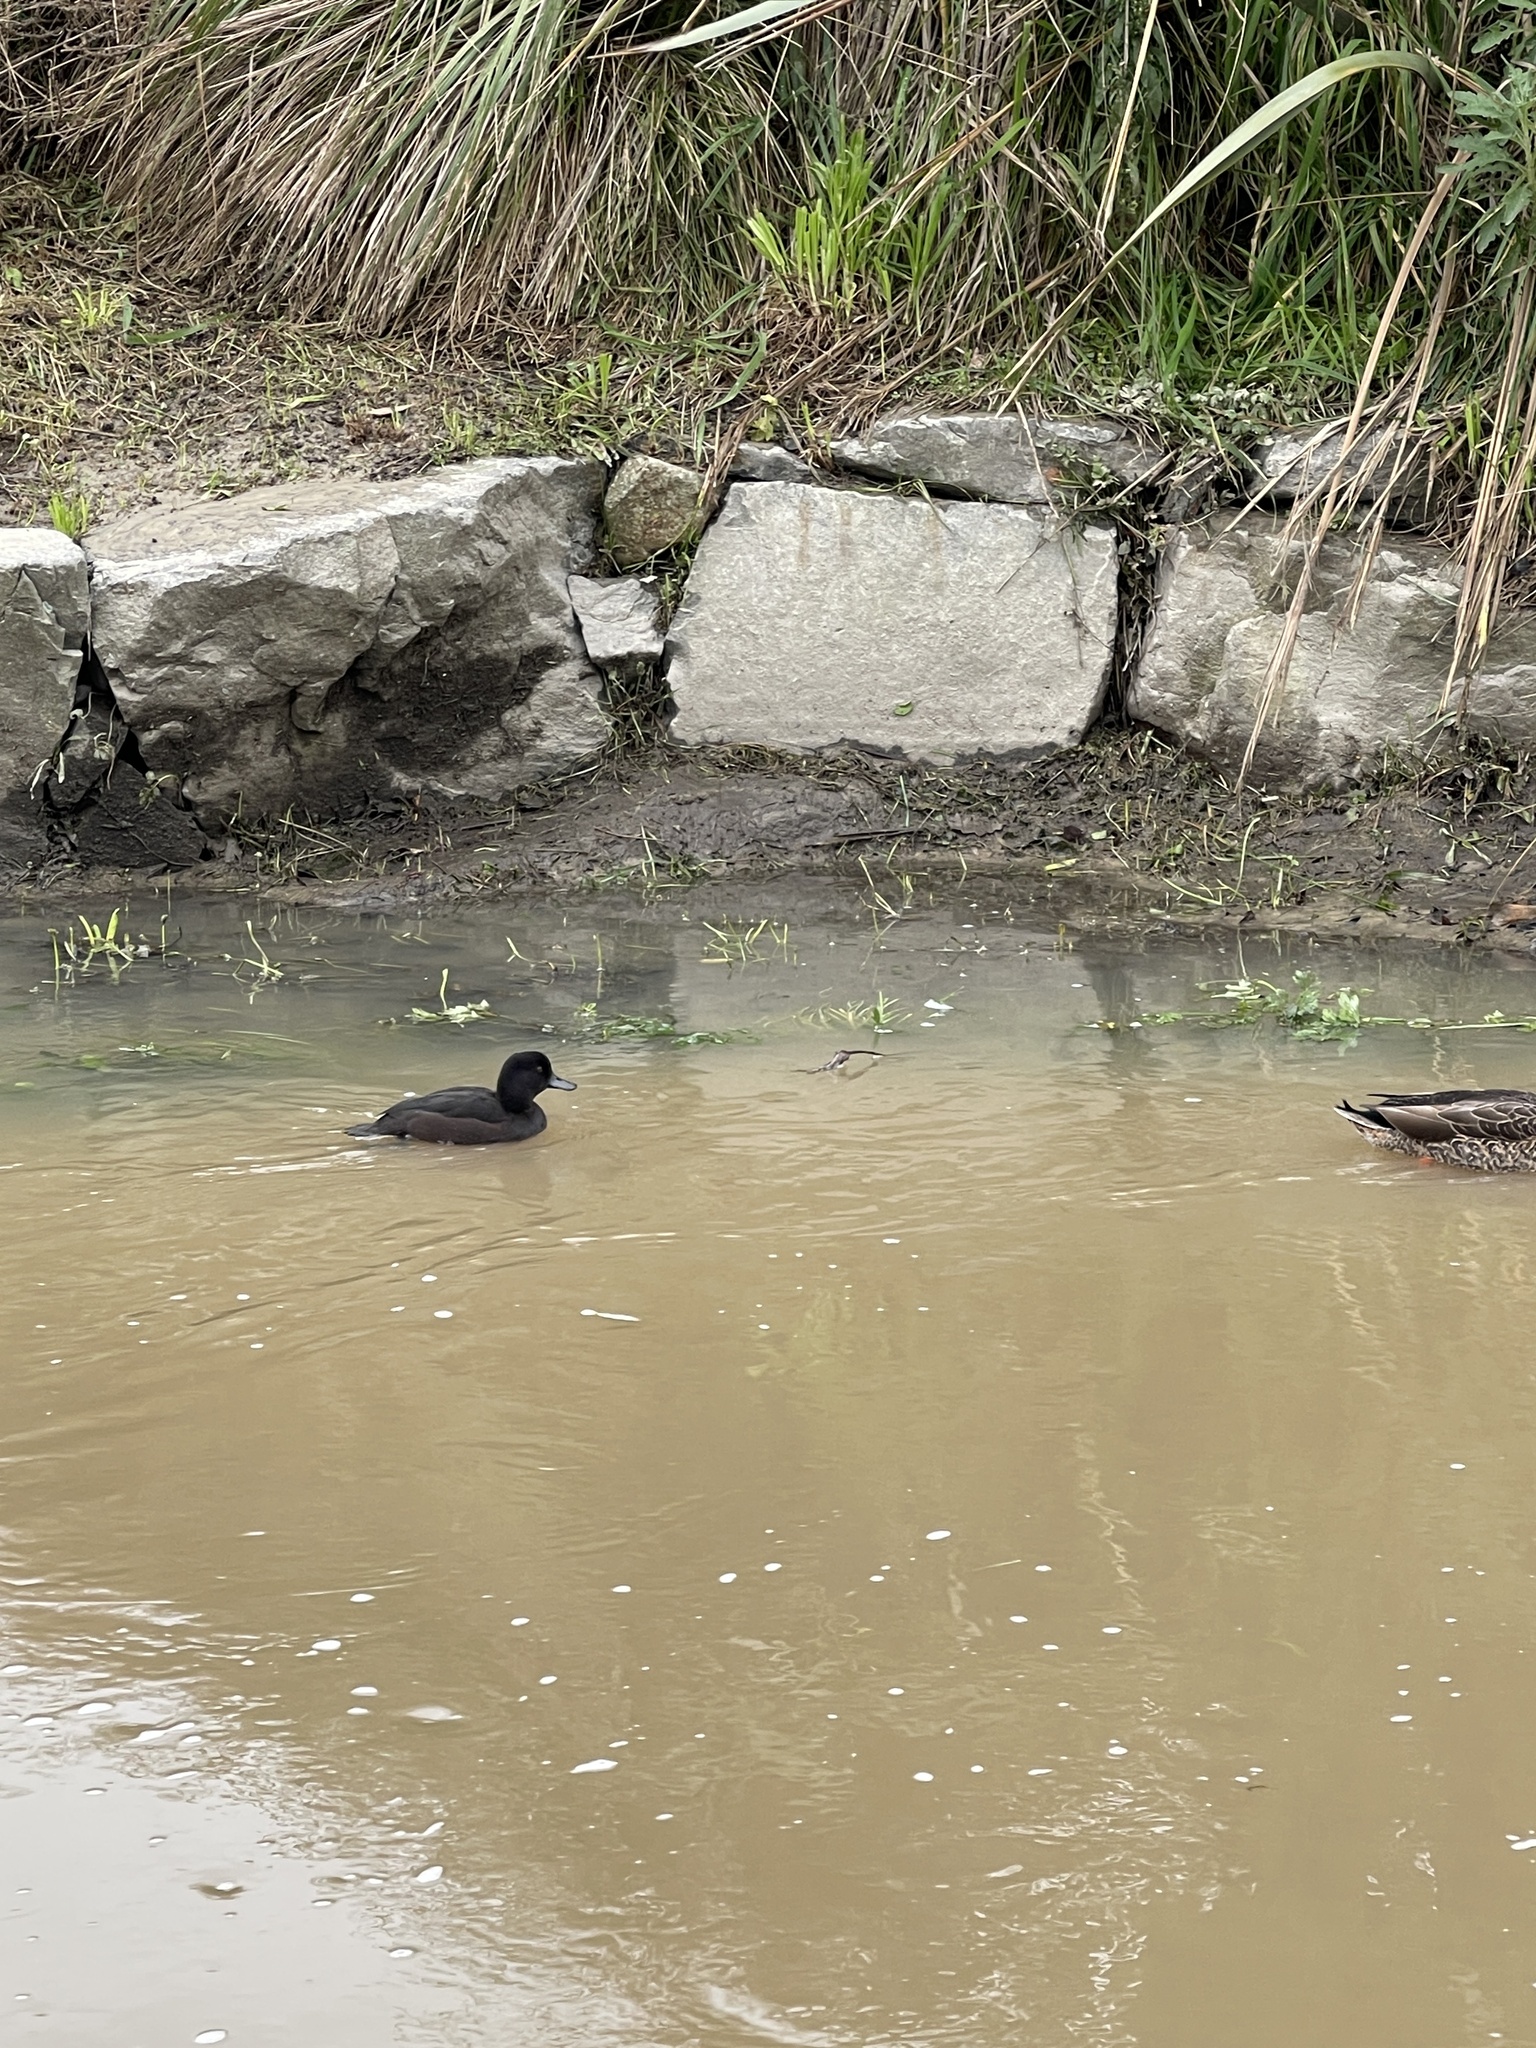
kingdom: Animalia
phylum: Chordata
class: Aves
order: Anseriformes
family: Anatidae
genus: Aythya
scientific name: Aythya novaeseelandiae
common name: New zealand scaup
